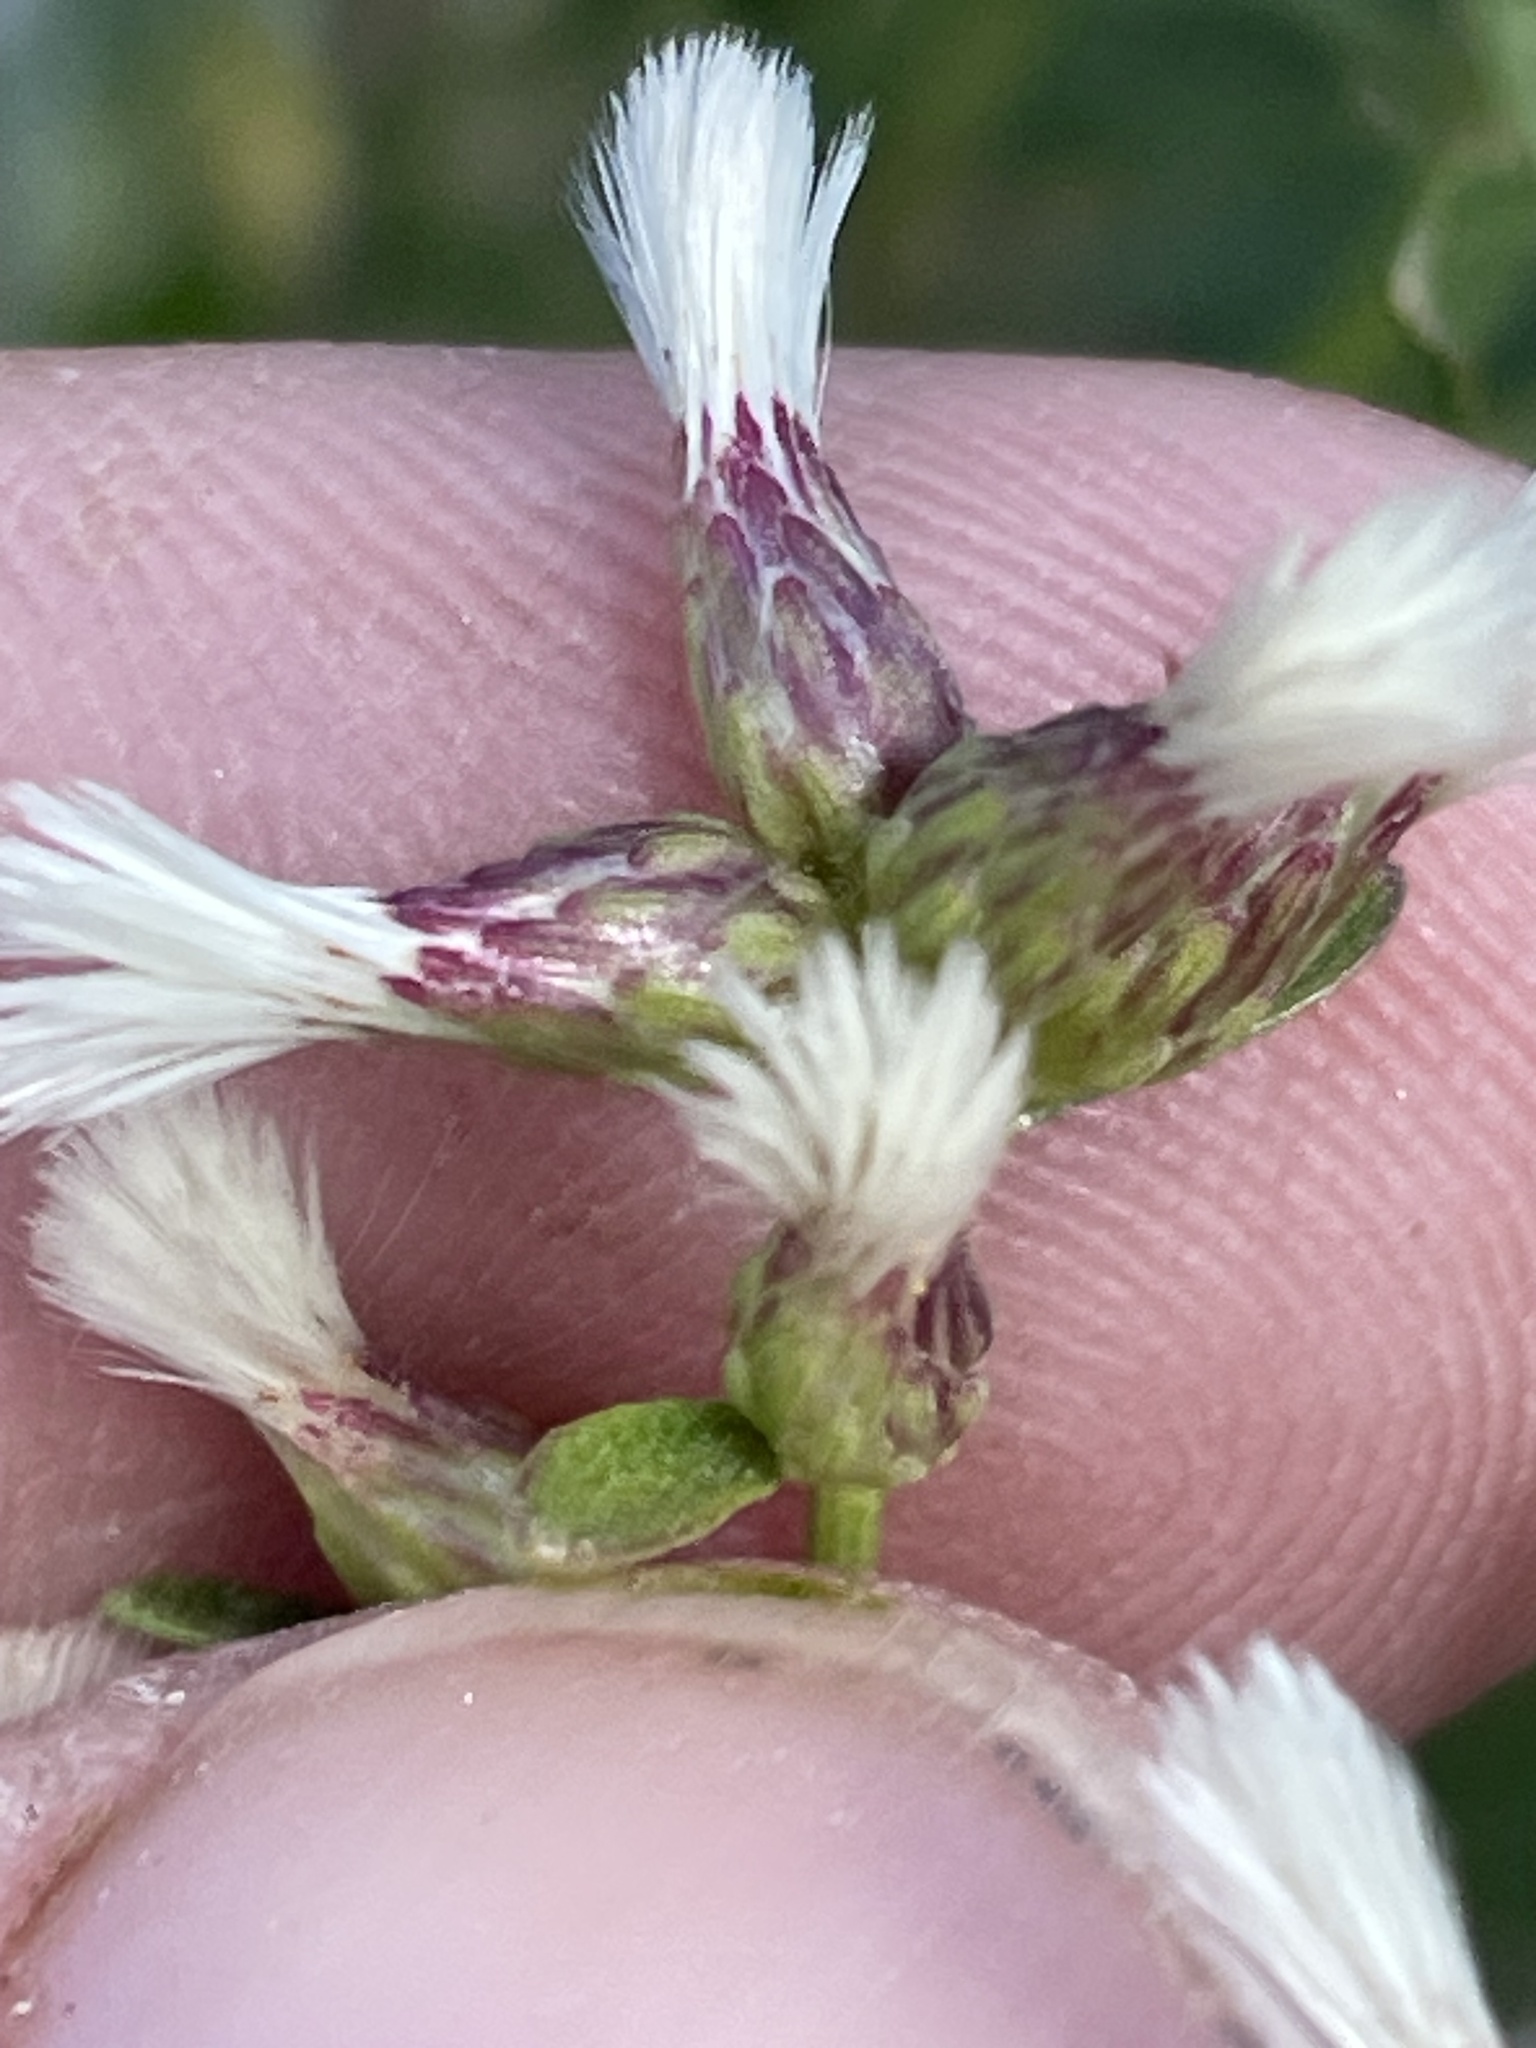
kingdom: Plantae
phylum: Tracheophyta
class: Magnoliopsida
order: Asterales
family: Asteraceae
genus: Baccharis
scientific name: Baccharis halimifolia
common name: Eastern baccharis
